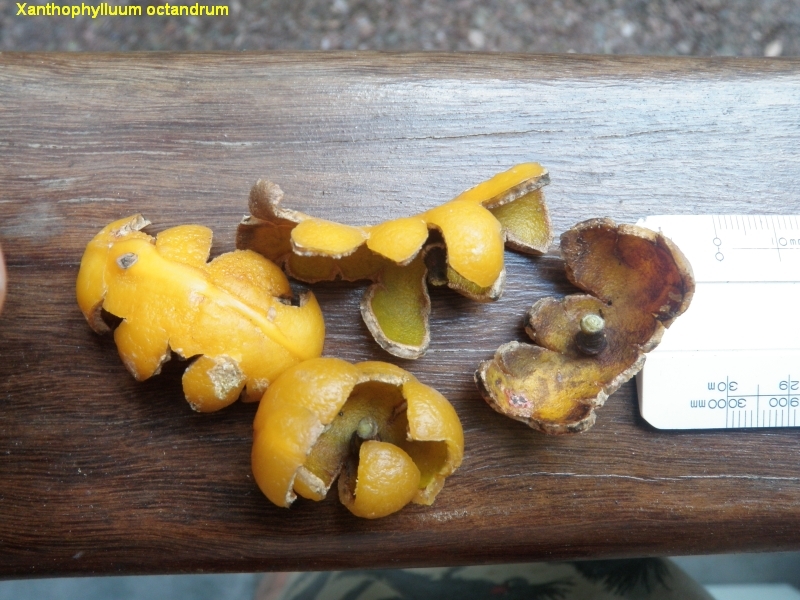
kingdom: Plantae
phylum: Tracheophyta
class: Magnoliopsida
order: Fabales
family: Polygalaceae
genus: Xanthophyllum
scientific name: Xanthophyllum octandrum
